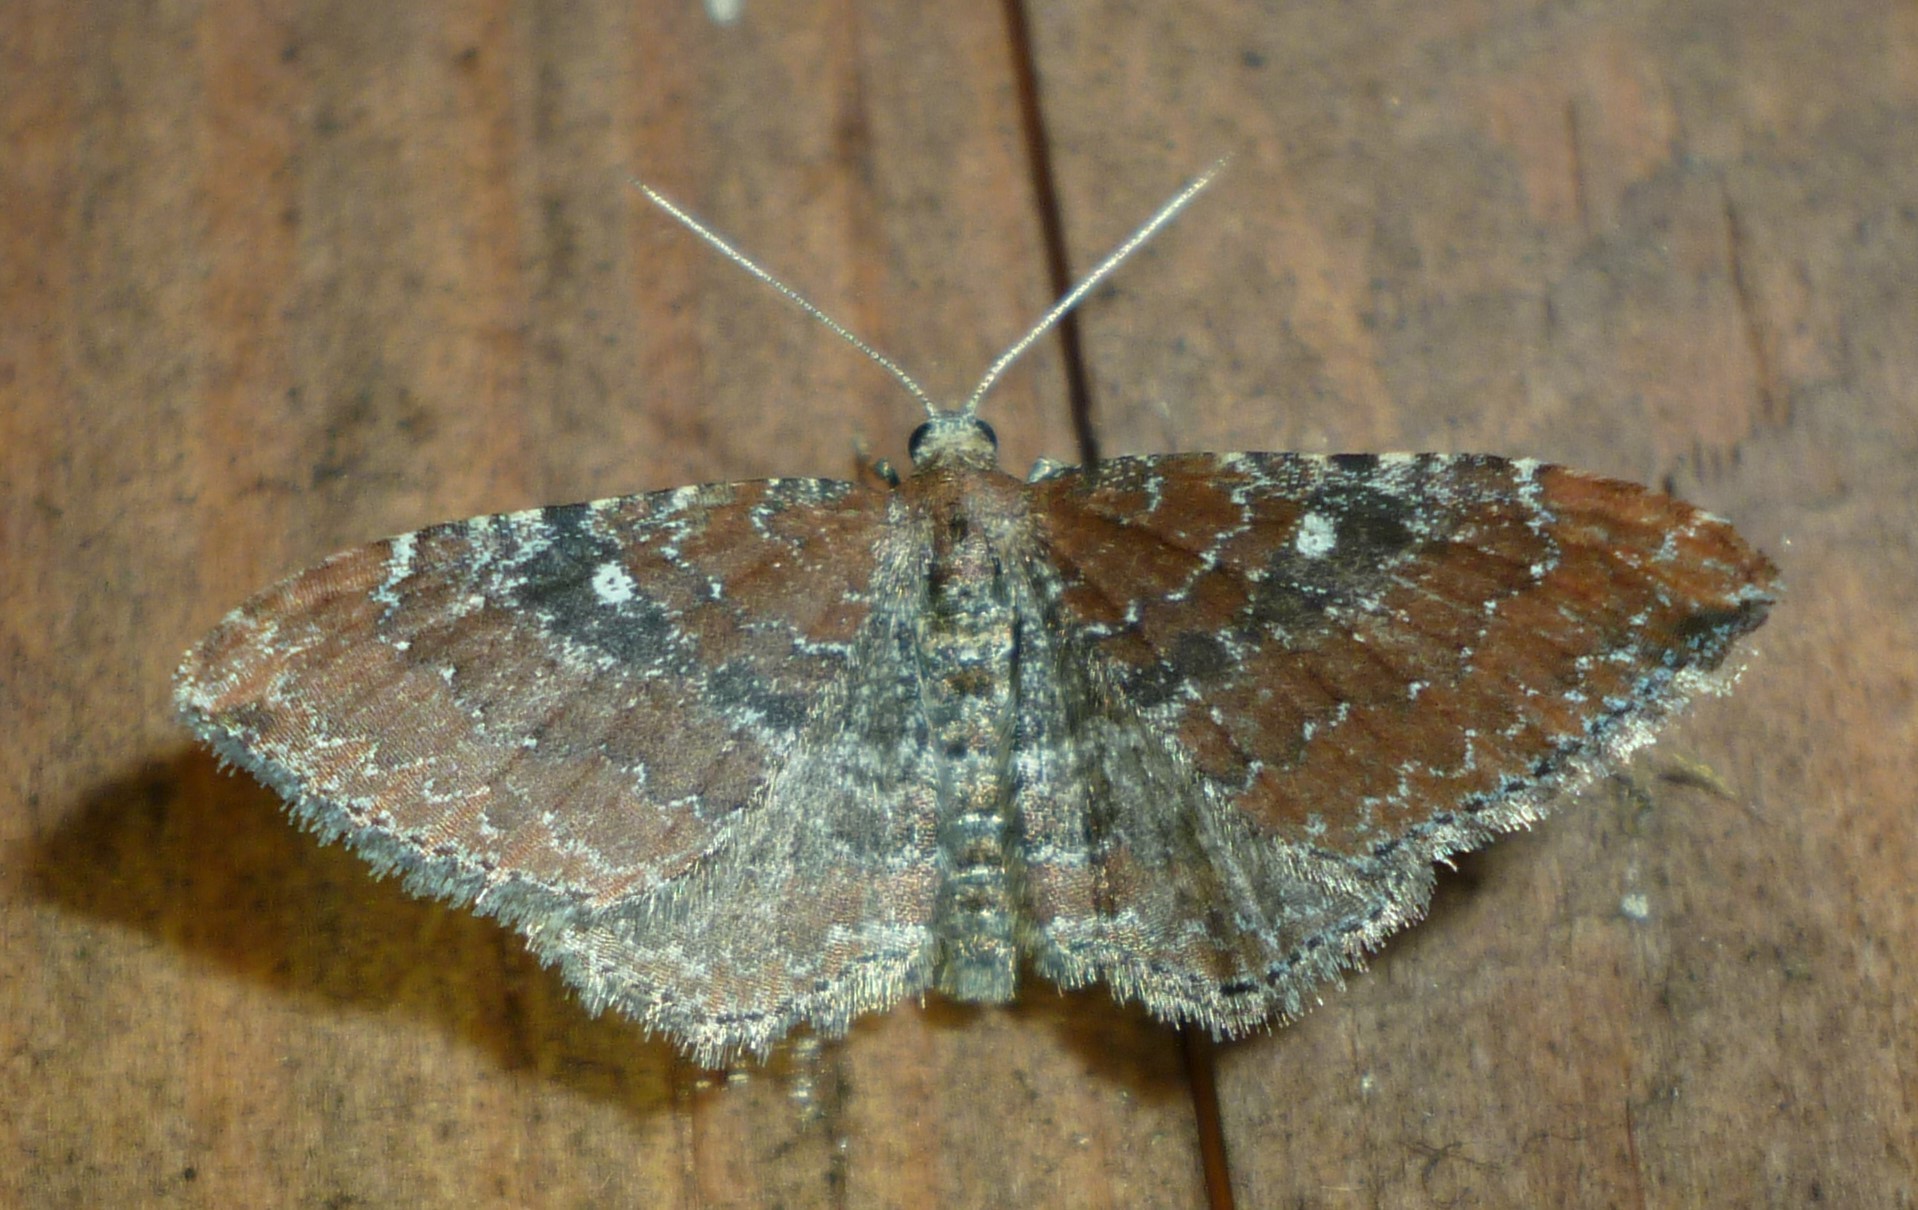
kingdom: Animalia
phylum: Arthropoda
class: Insecta
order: Lepidoptera
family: Geometridae
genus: Orthonama
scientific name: Orthonama obstipata
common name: The gem
